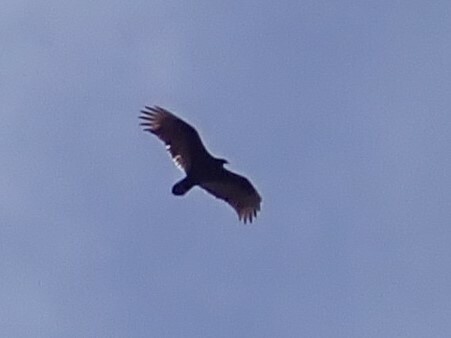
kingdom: Animalia
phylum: Chordata
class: Aves
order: Accipitriformes
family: Cathartidae
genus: Cathartes
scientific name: Cathartes aura
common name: Turkey vulture
